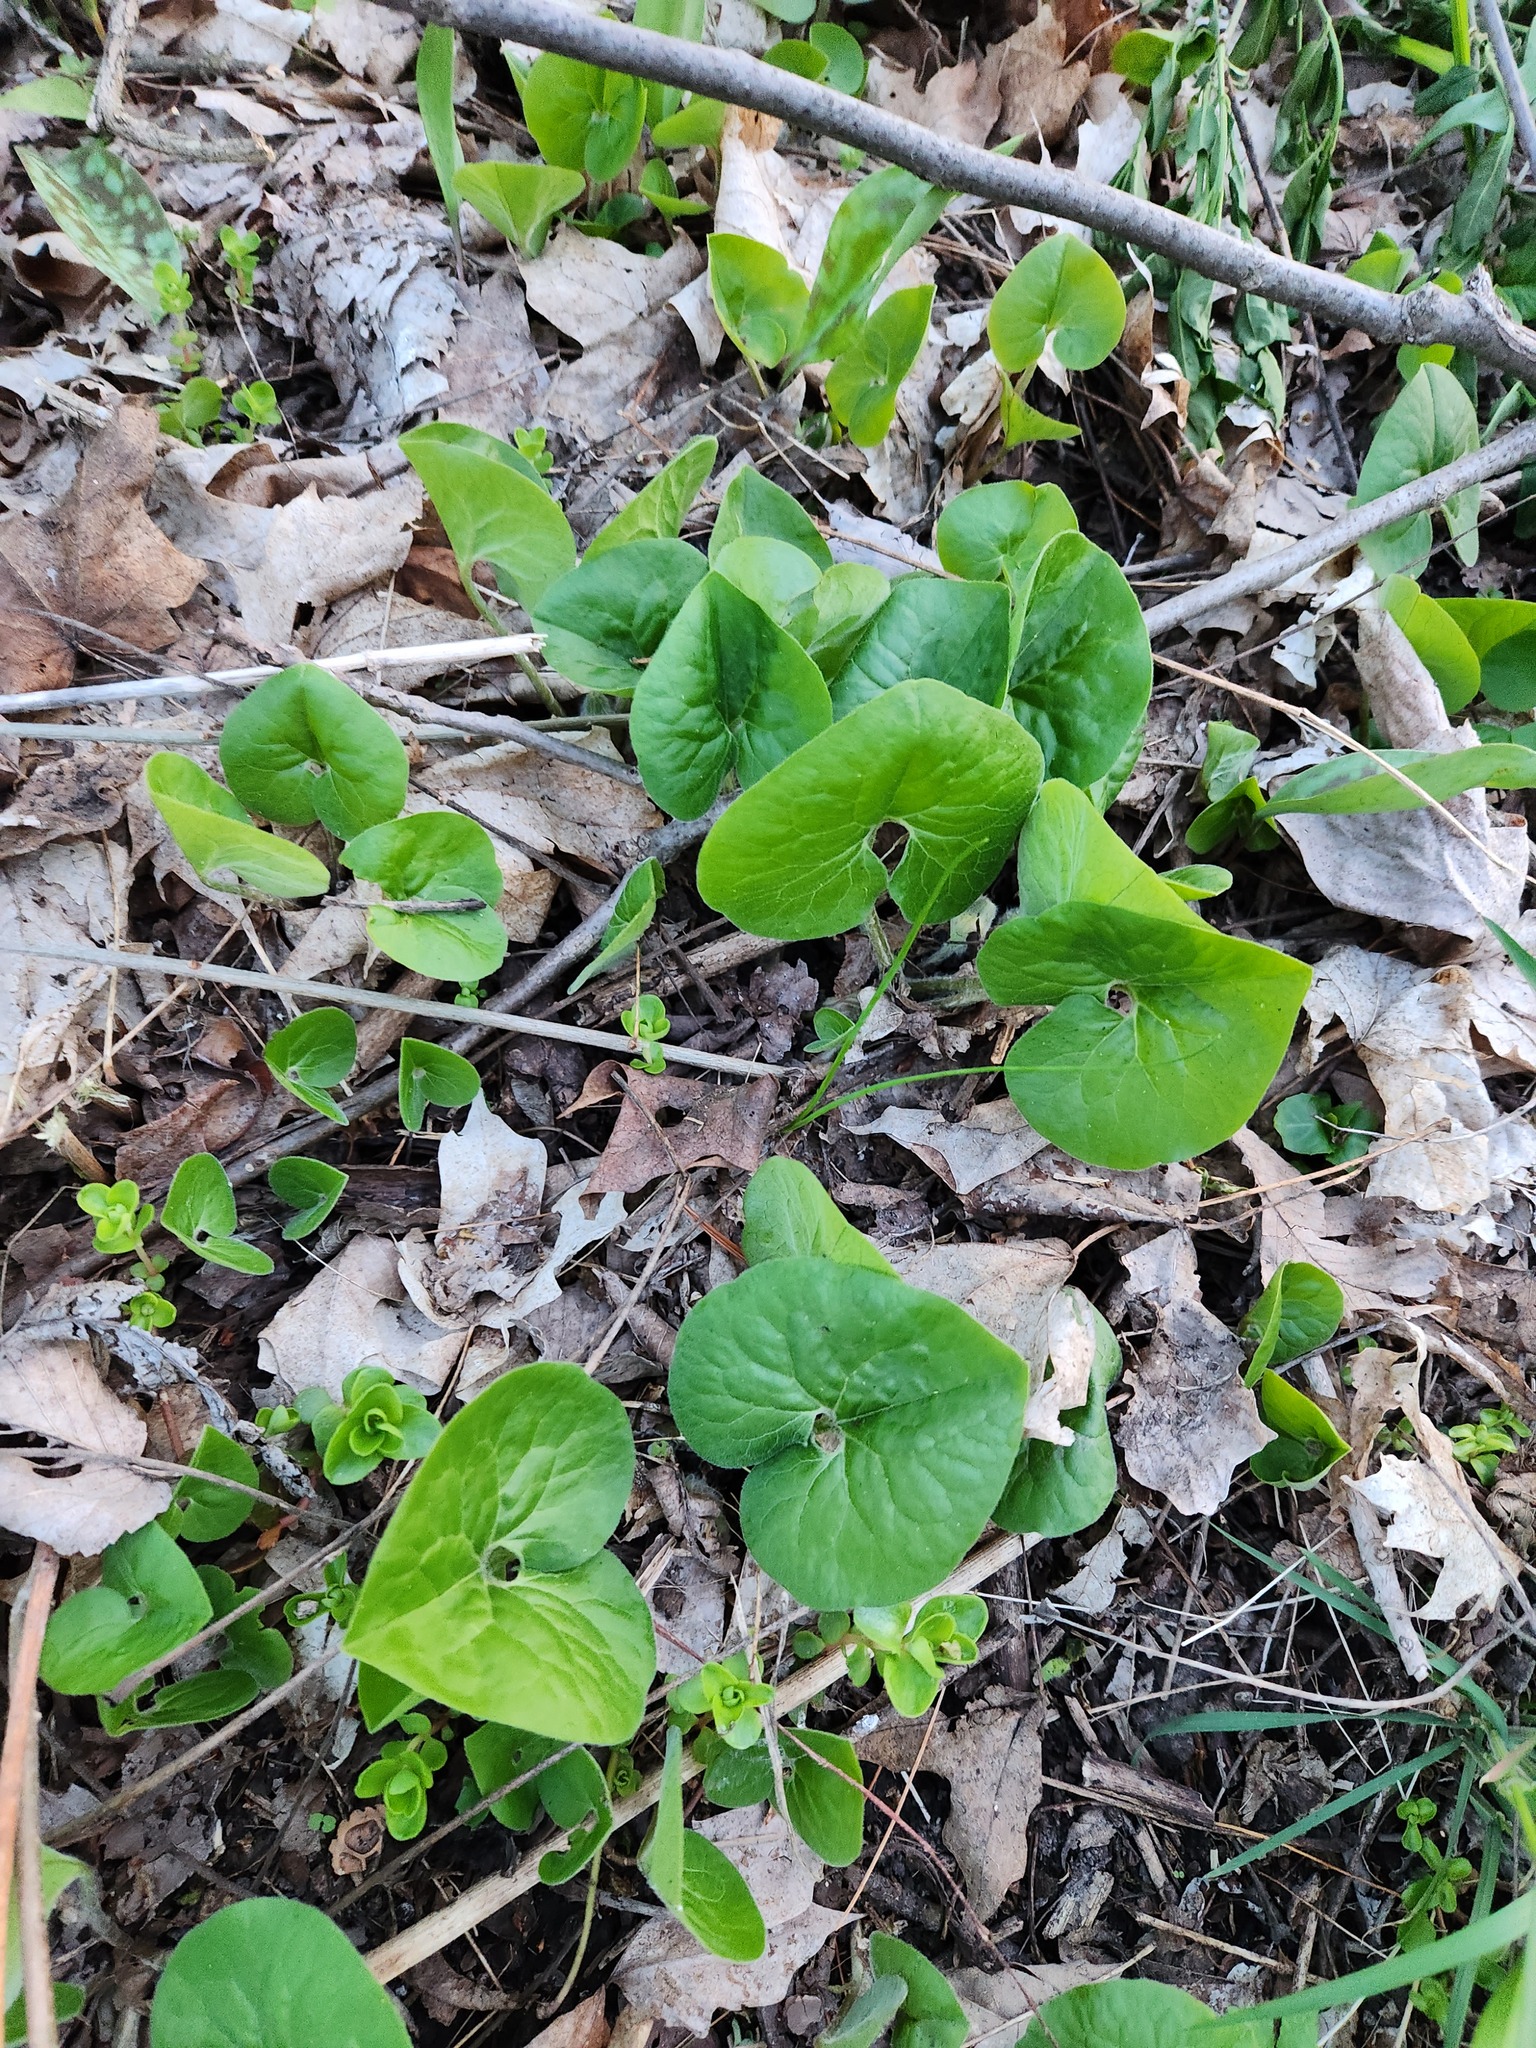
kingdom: Plantae
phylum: Tracheophyta
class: Magnoliopsida
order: Piperales
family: Aristolochiaceae
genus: Asarum
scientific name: Asarum canadense
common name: Wild ginger
